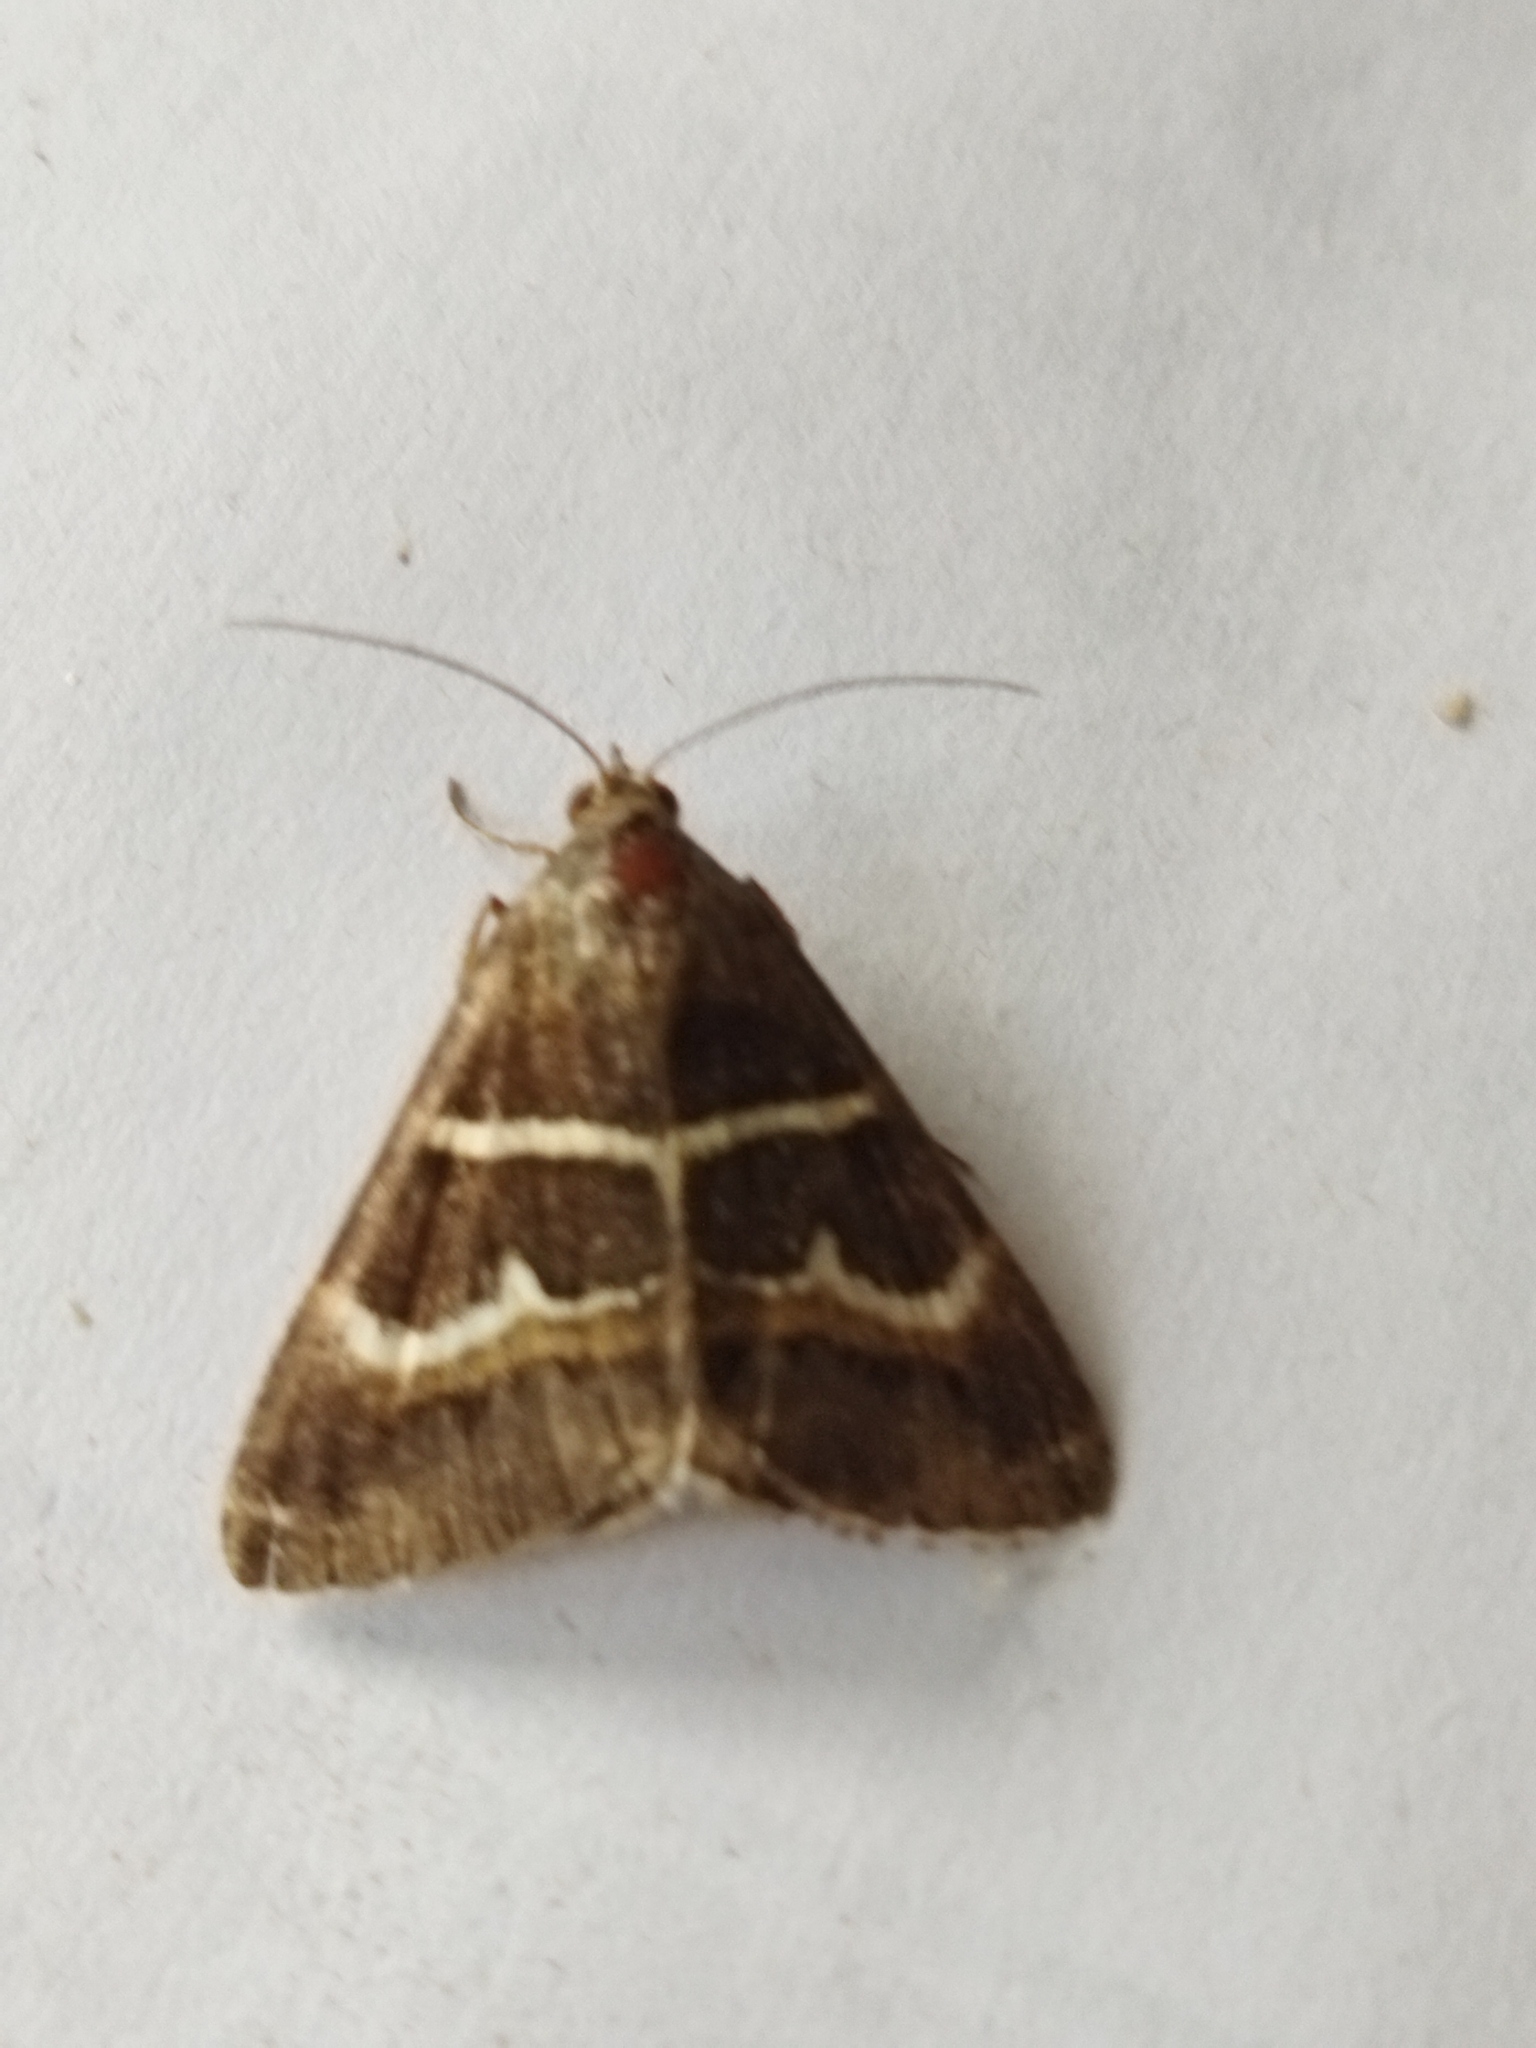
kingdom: Animalia
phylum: Arthropoda
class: Insecta
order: Lepidoptera
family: Erebidae
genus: Grammodes
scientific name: Grammodes stolida
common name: Geometrician
